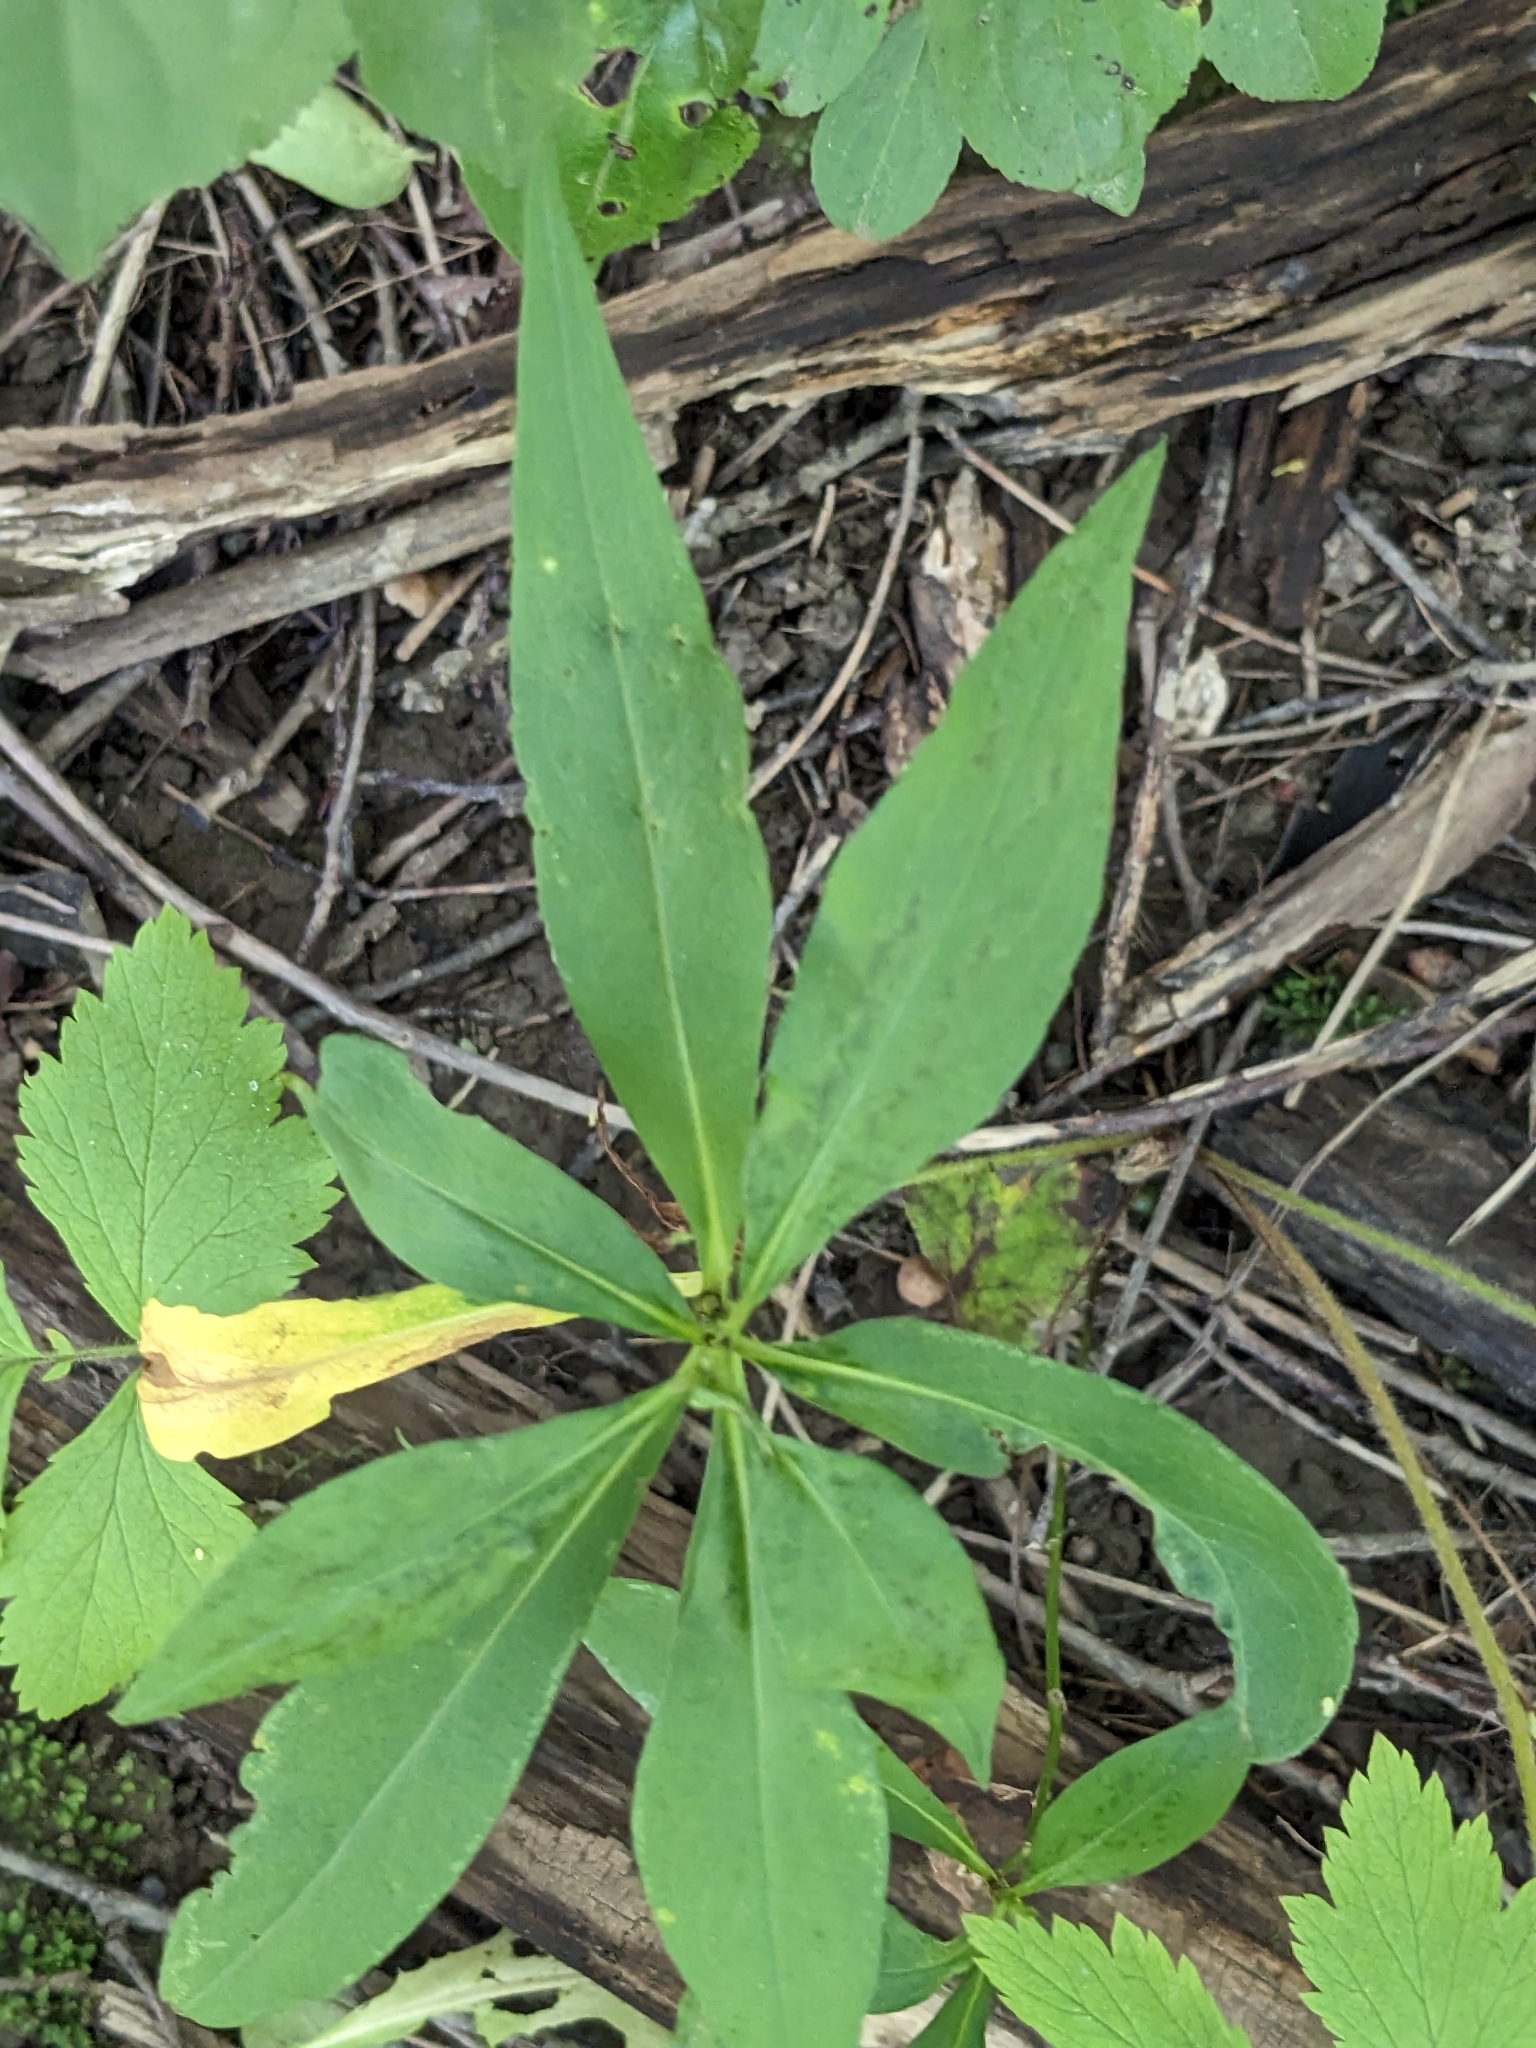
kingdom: Plantae
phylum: Tracheophyta
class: Magnoliopsida
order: Asterales
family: Asteraceae
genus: Symphyotrichum
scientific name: Symphyotrichum lanceolatum
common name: Panicled aster
